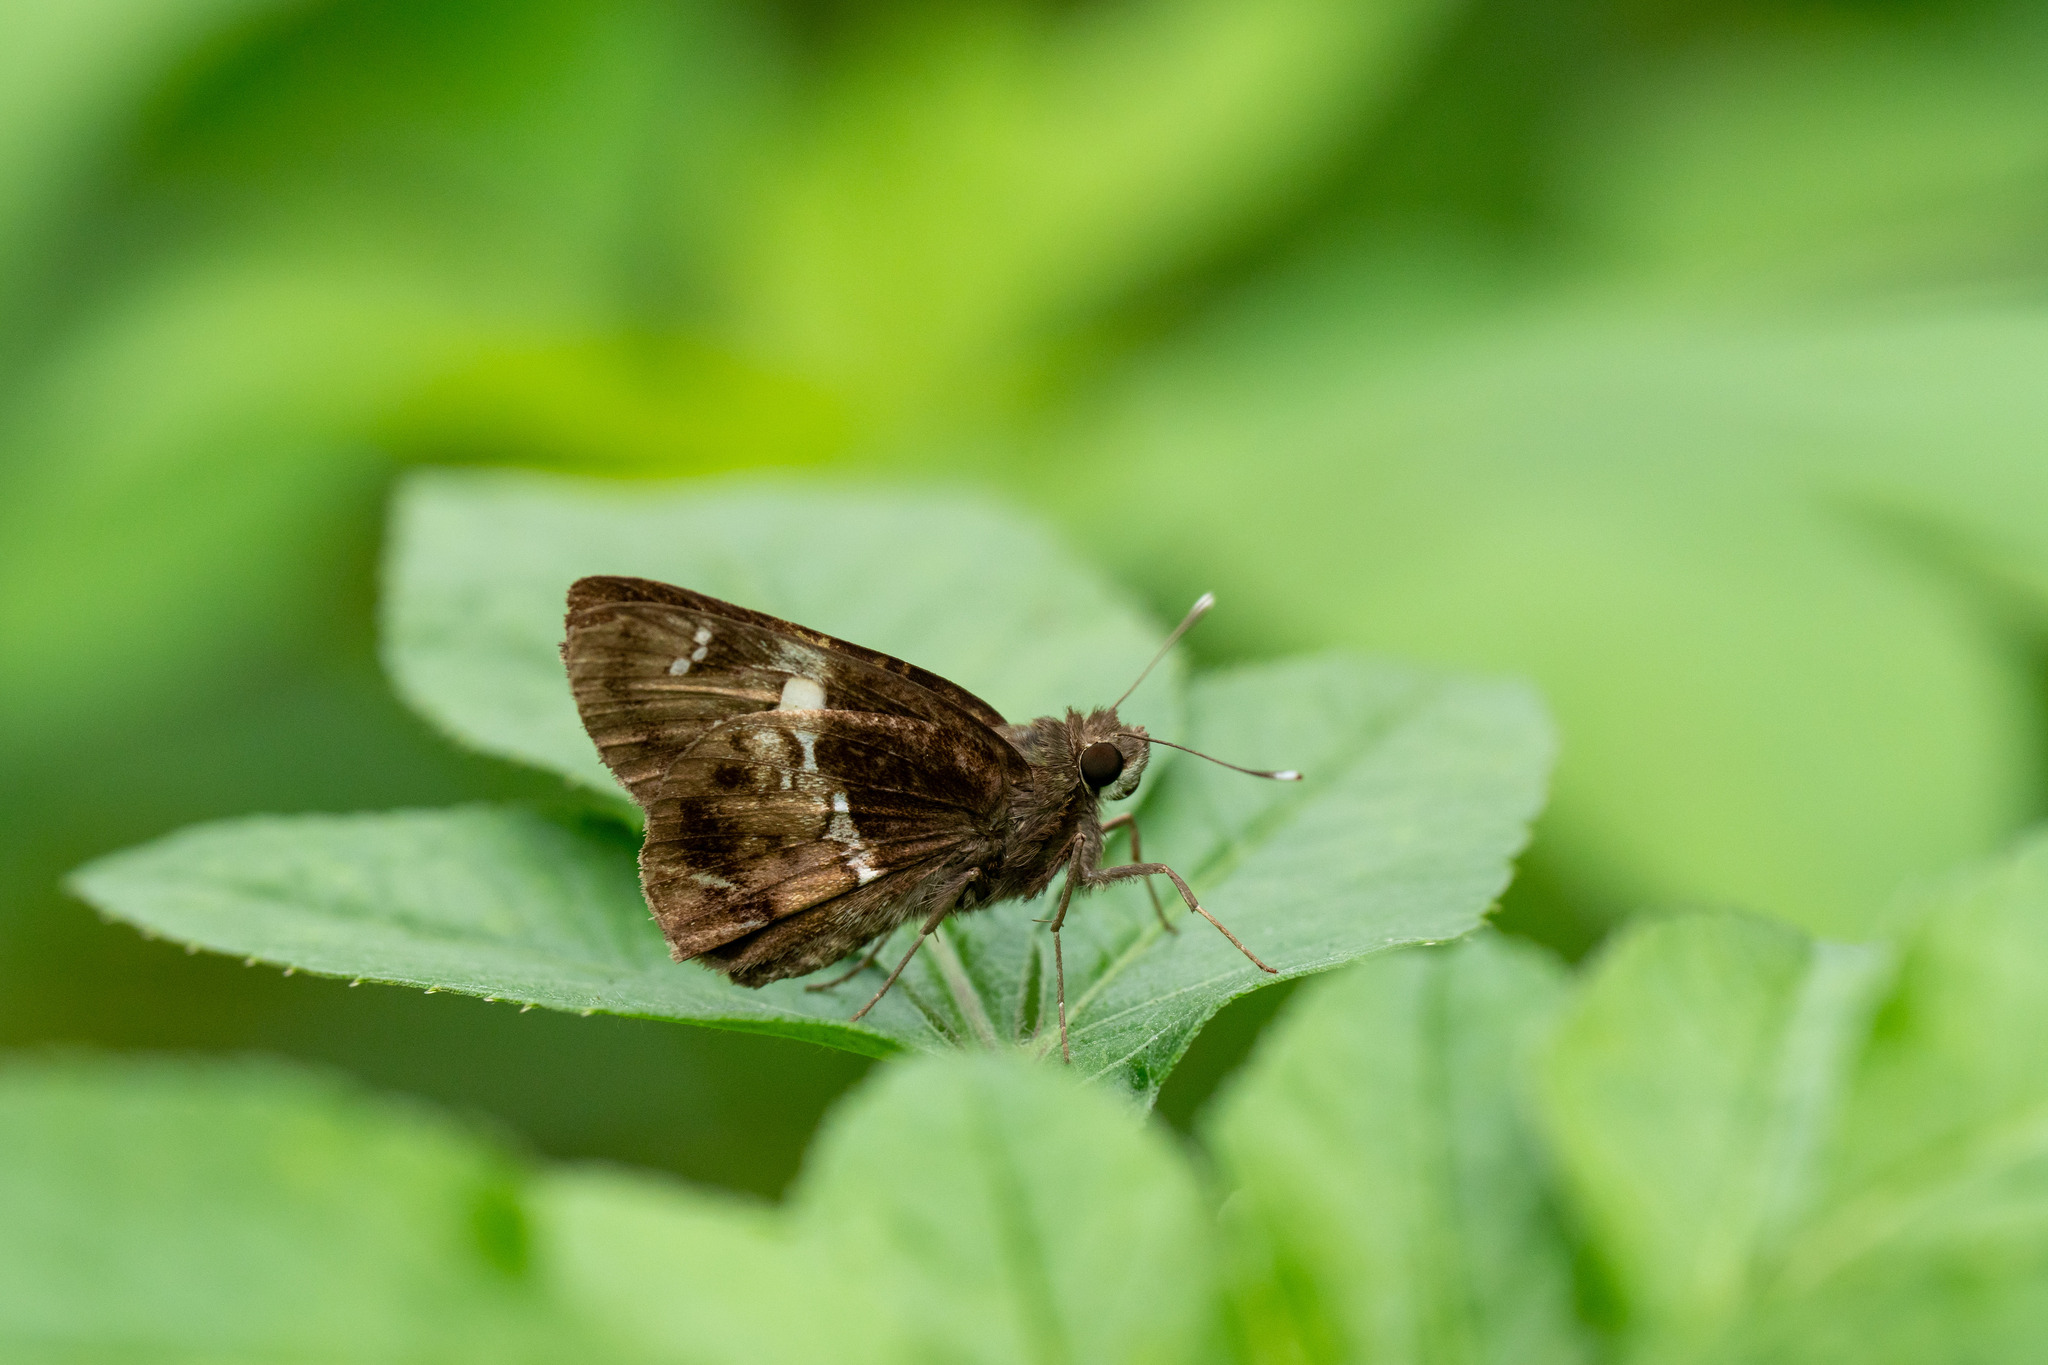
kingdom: Animalia
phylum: Arthropoda
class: Insecta
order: Lepidoptera
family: Hesperiidae
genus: Hyarotis
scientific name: Hyarotis adrastus
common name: Tree flitter
